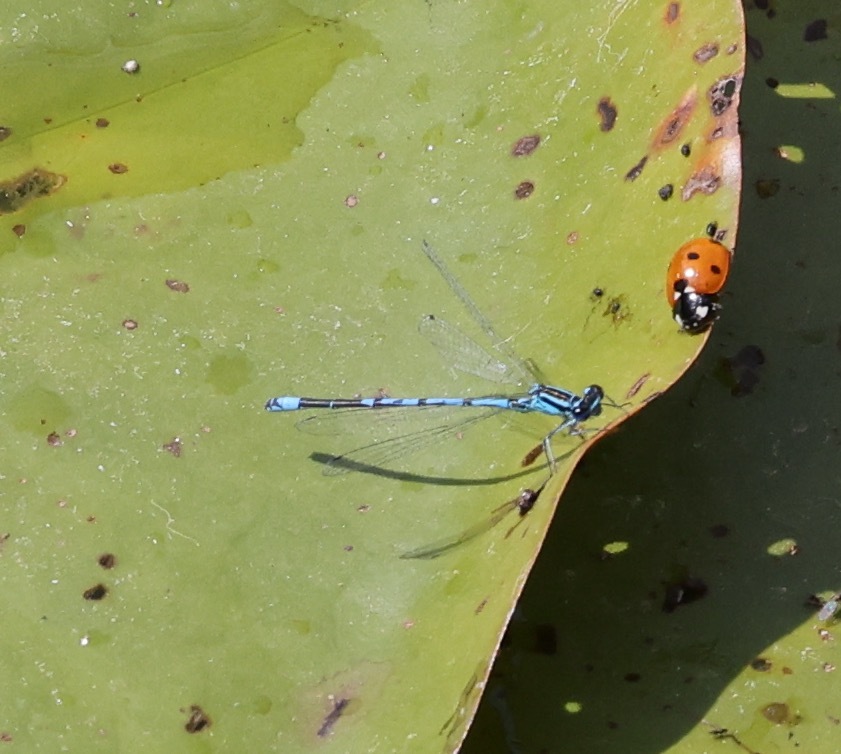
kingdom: Animalia
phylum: Arthropoda
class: Insecta
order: Odonata
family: Coenagrionidae
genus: Coenagrion
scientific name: Coenagrion puella
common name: Azure damselfly
